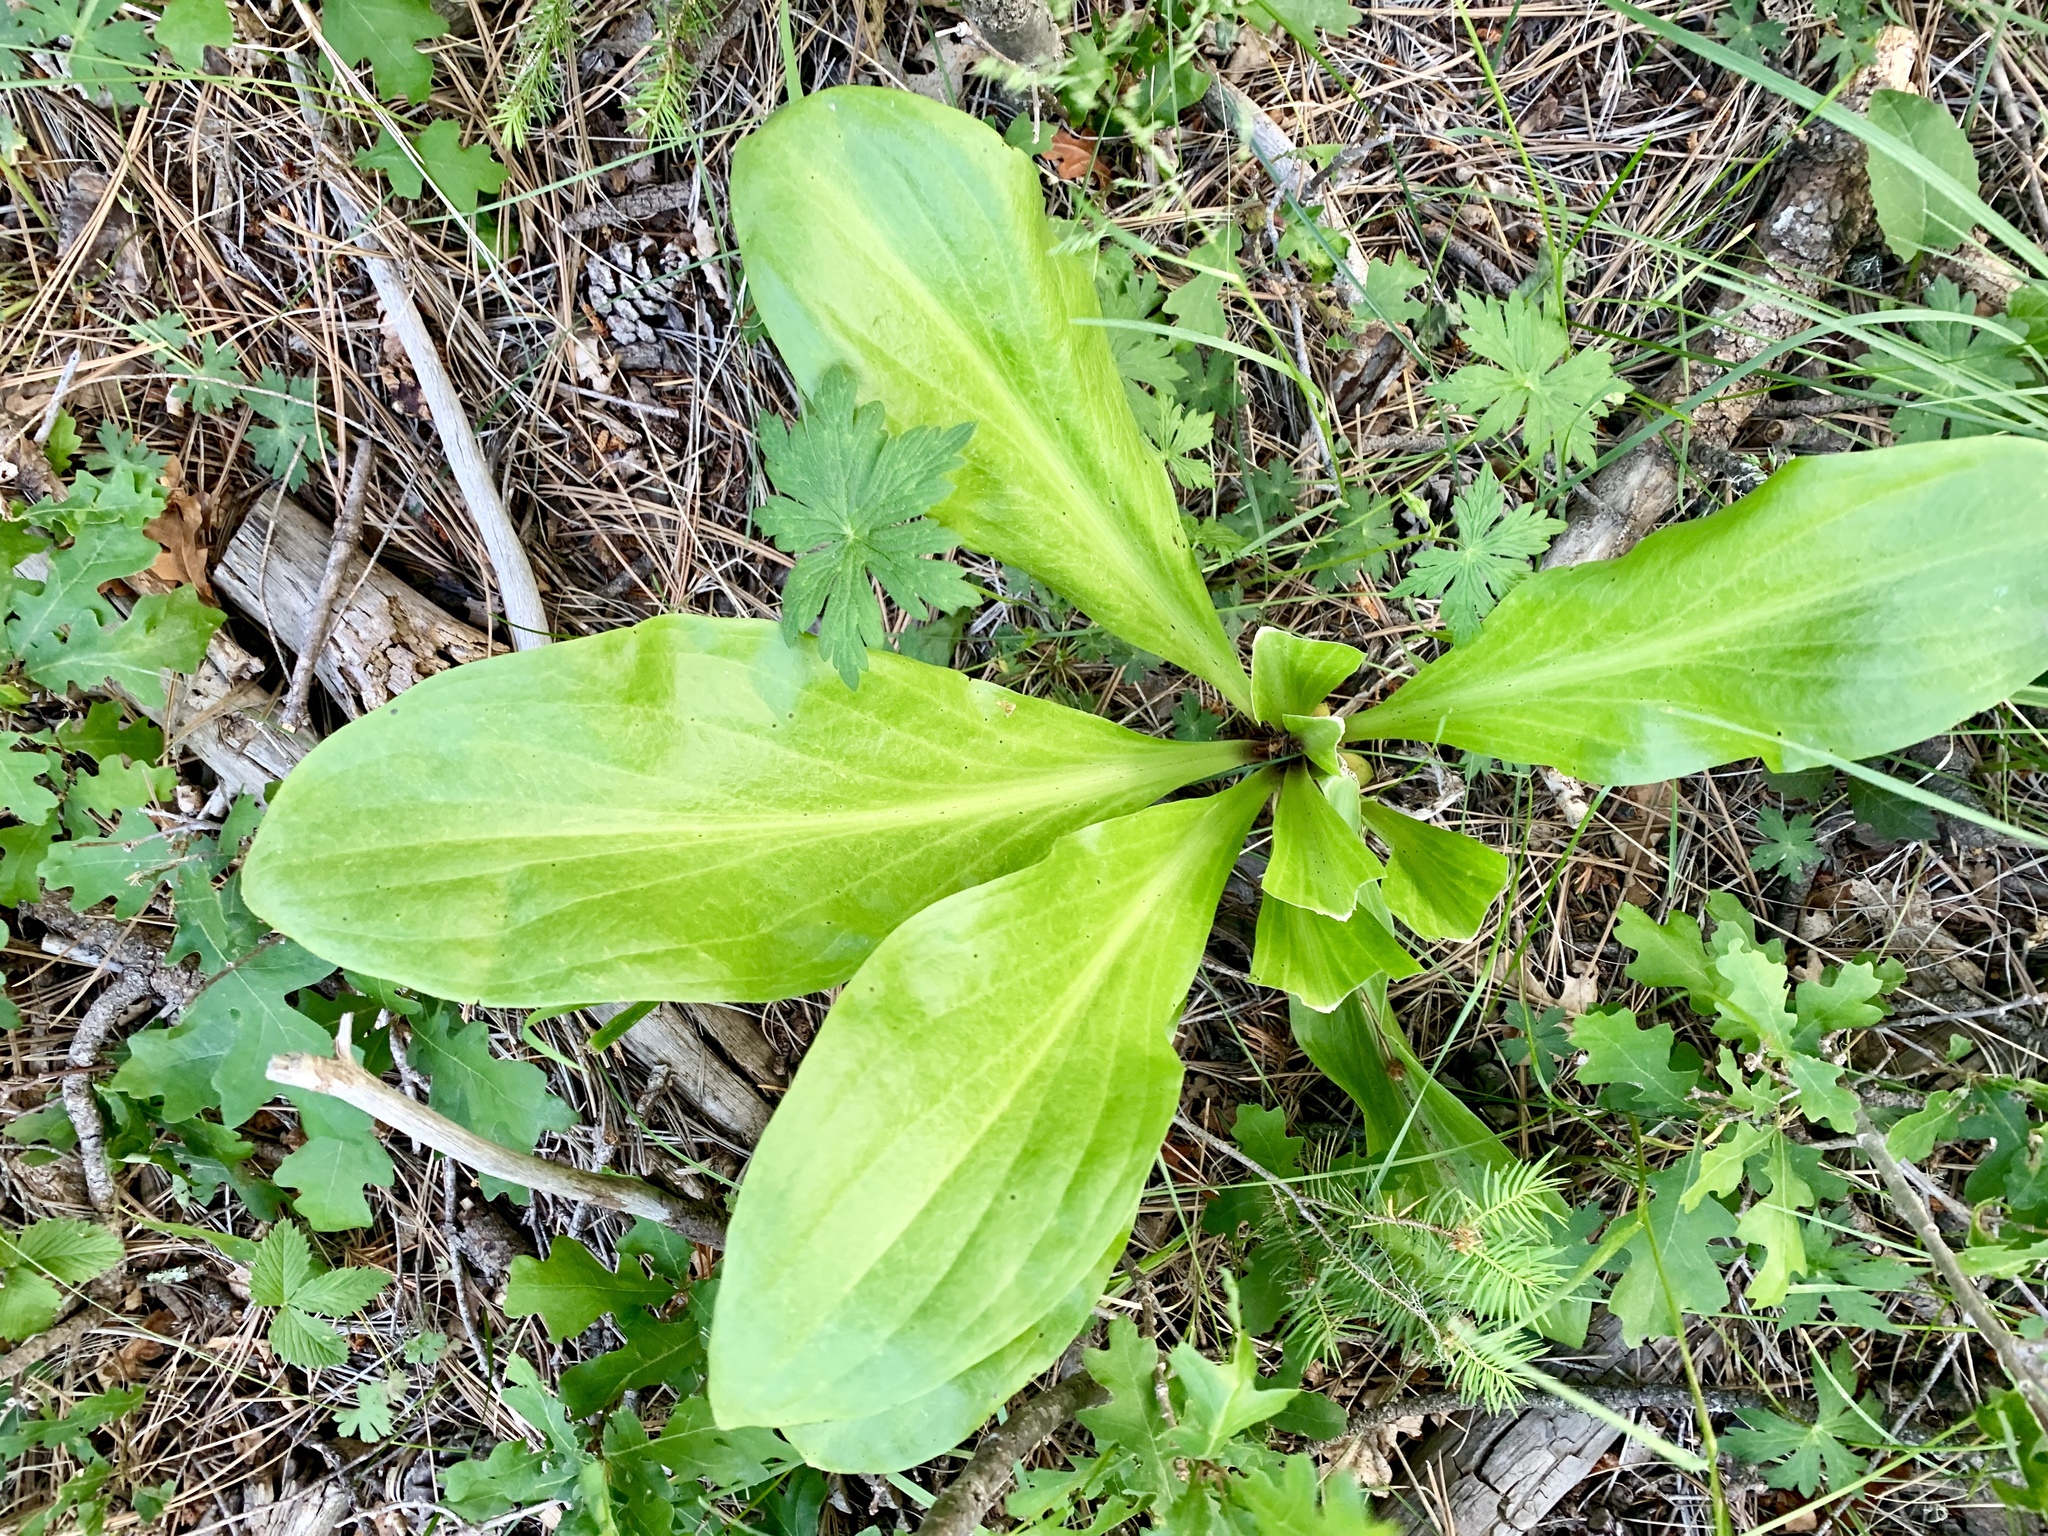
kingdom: Plantae
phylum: Tracheophyta
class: Magnoliopsida
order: Gentianales
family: Gentianaceae
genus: Frasera
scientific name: Frasera speciosa
